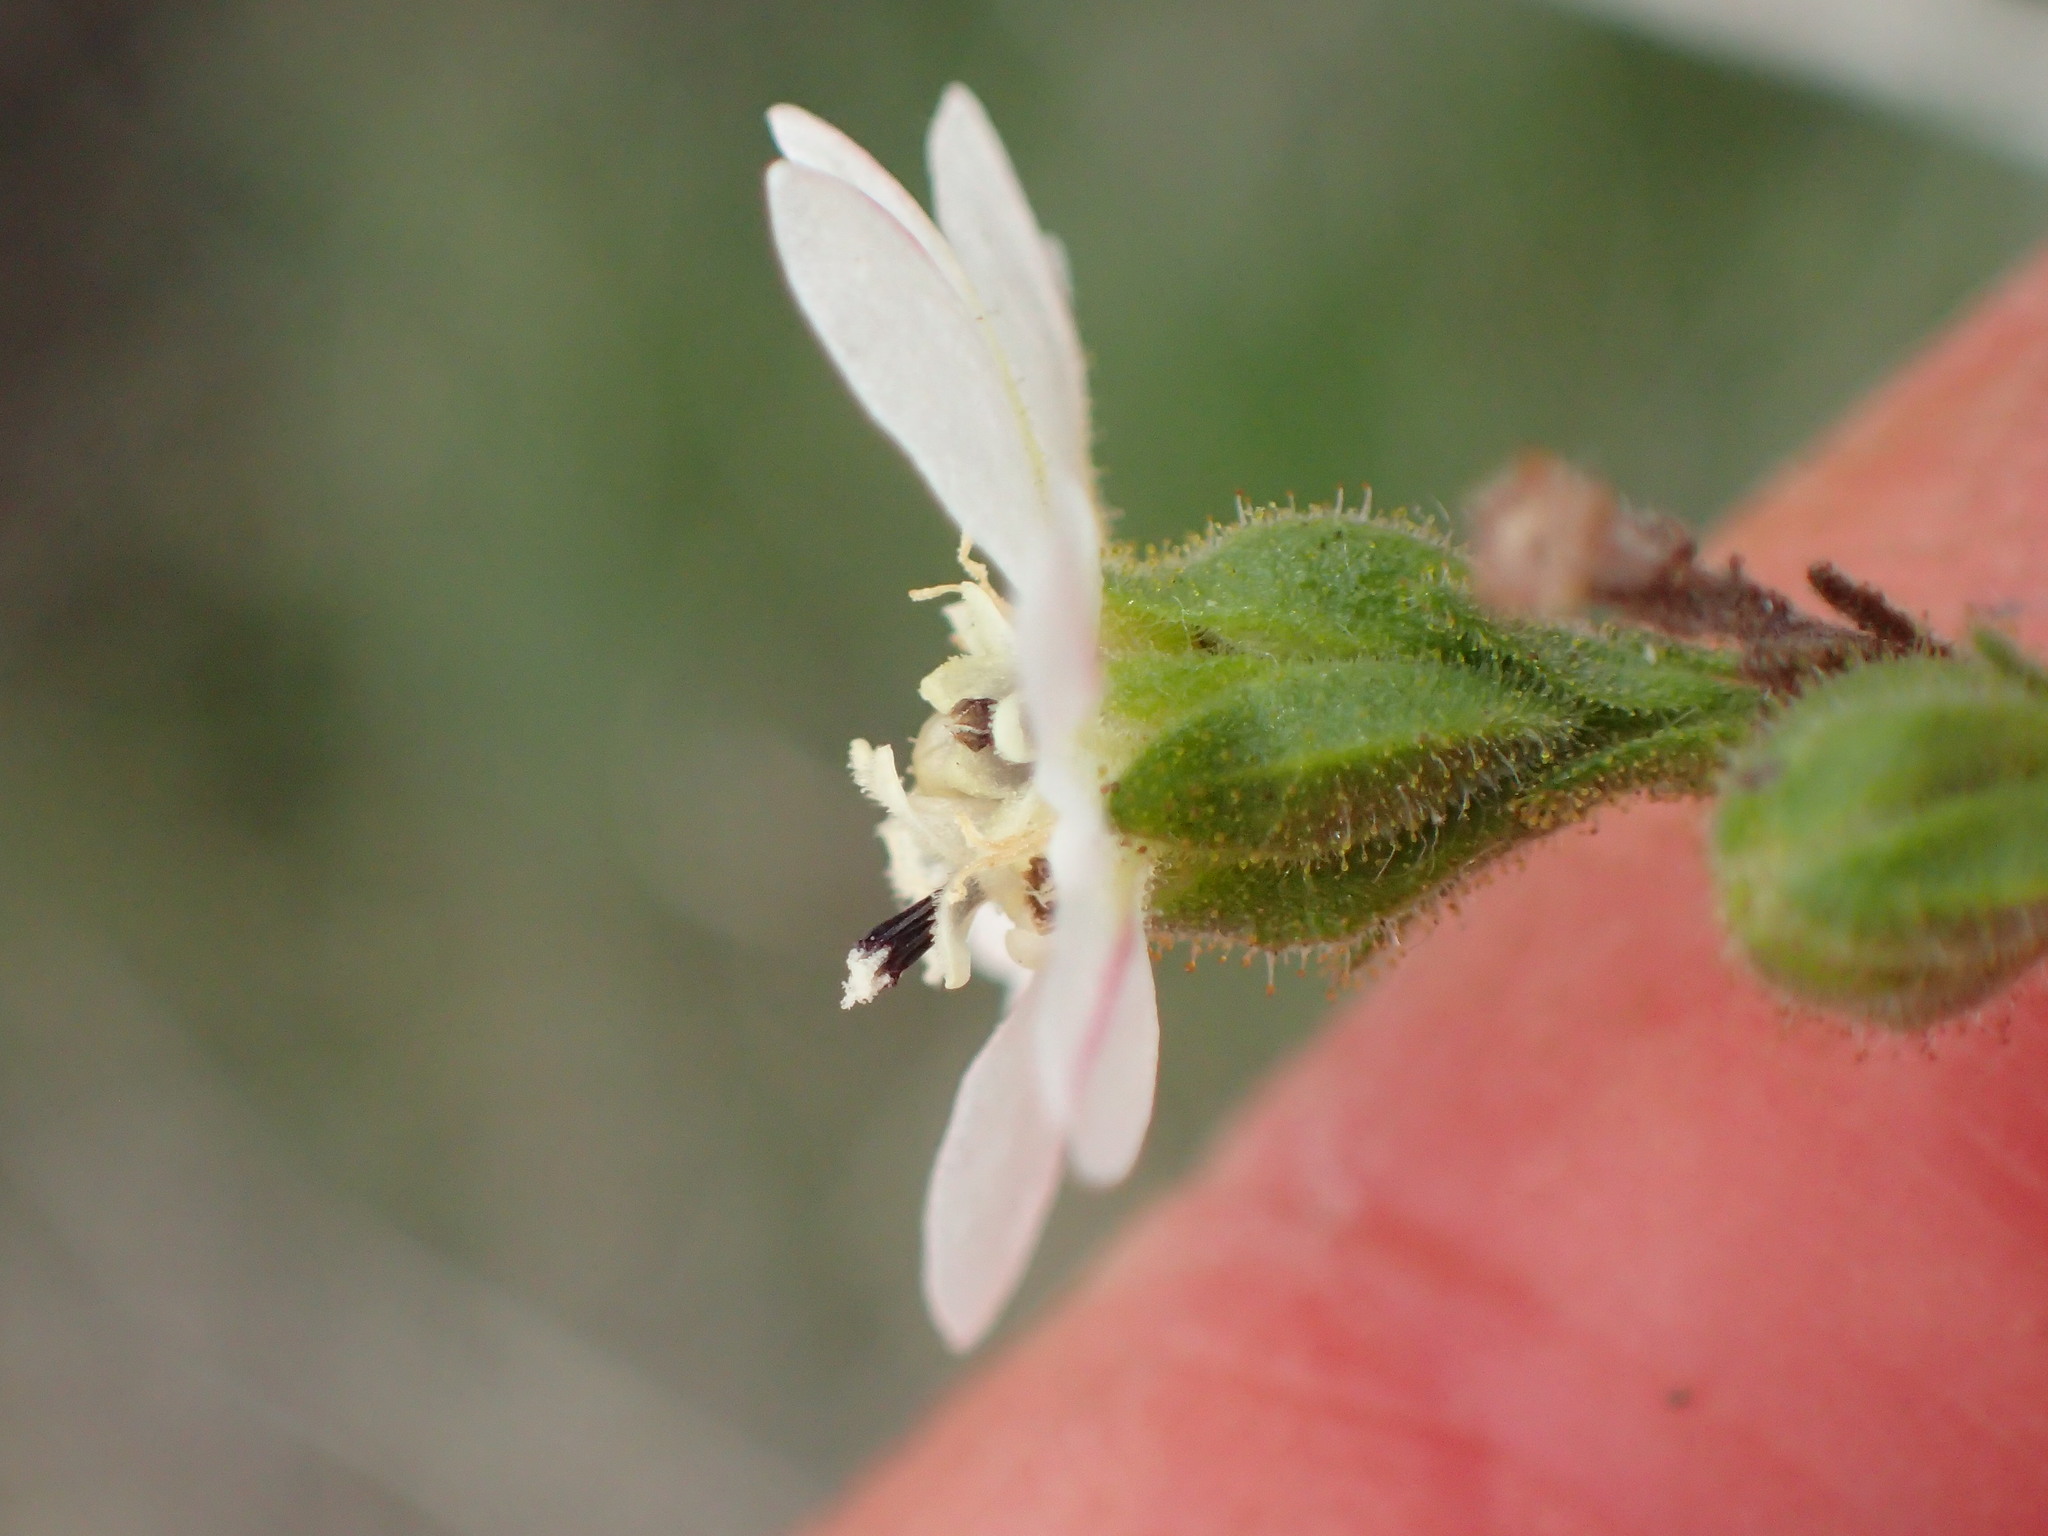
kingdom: Plantae
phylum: Tracheophyta
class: Magnoliopsida
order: Asterales
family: Asteraceae
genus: Hemizonia
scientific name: Hemizonia congesta
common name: Hayfield tarweed
